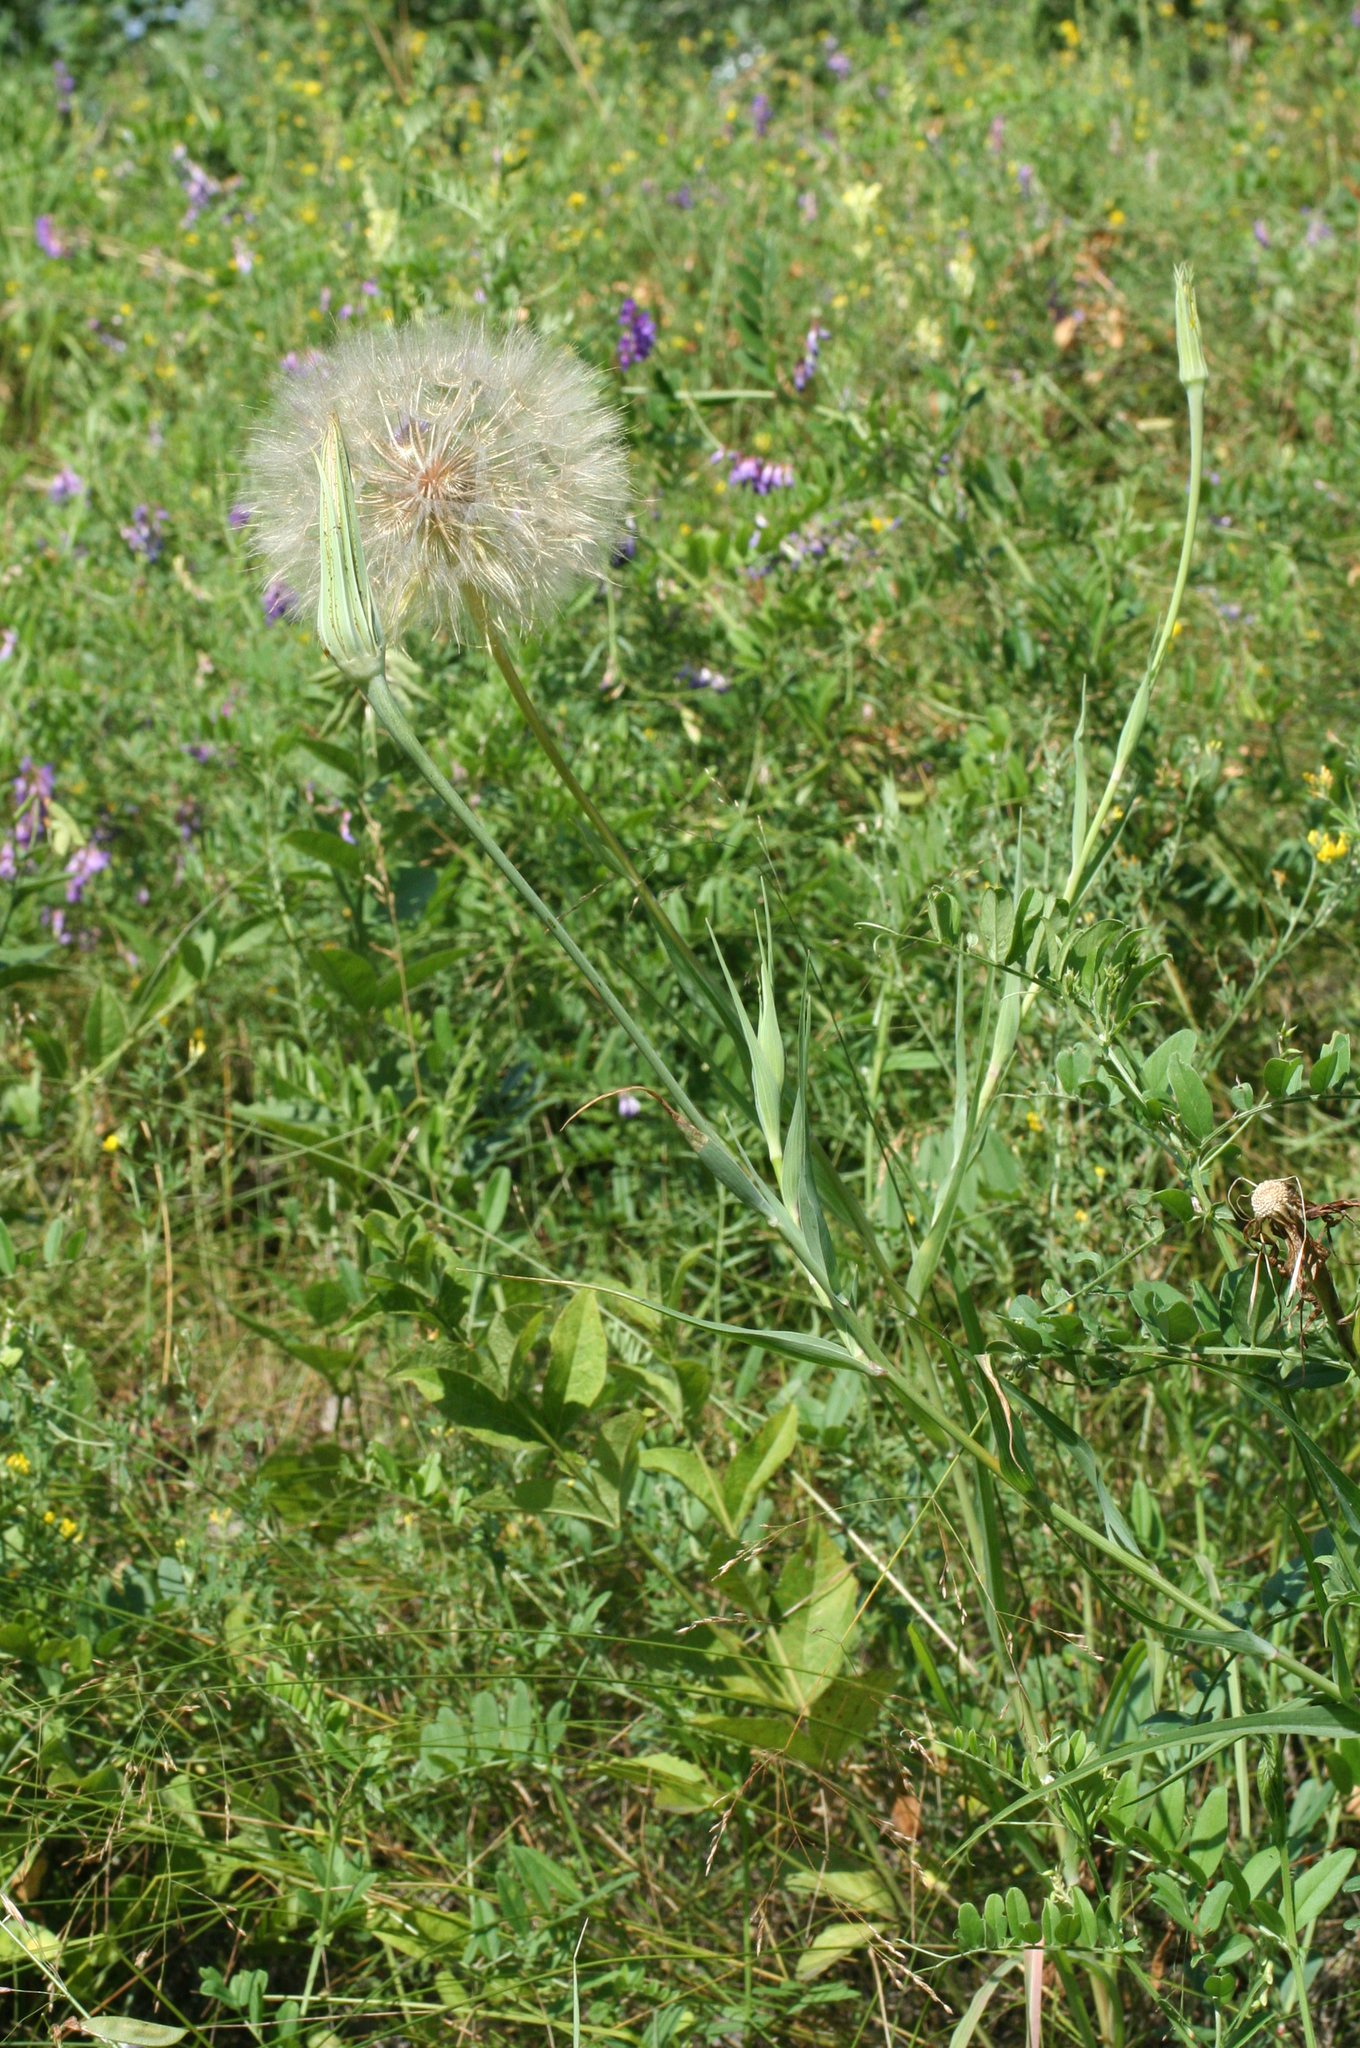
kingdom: Plantae
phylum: Tracheophyta
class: Magnoliopsida
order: Asterales
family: Asteraceae
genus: Tragopogon
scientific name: Tragopogon dubius
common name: Yellow salsify
